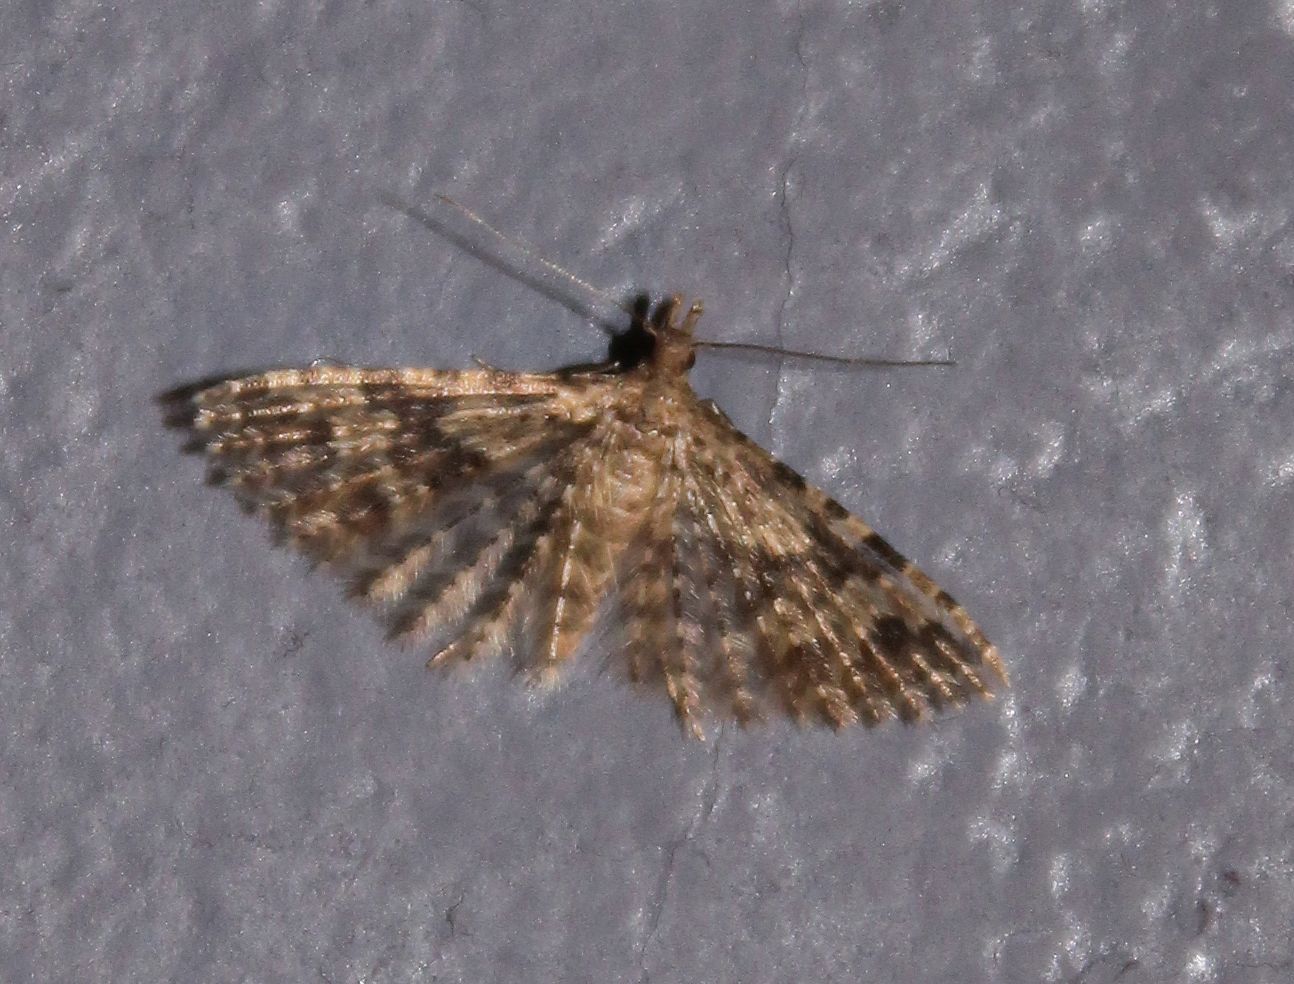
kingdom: Animalia
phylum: Arthropoda
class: Insecta
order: Lepidoptera
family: Alucitidae
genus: Alucita
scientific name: Alucita hexadactyla
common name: Twenty-plume moth
